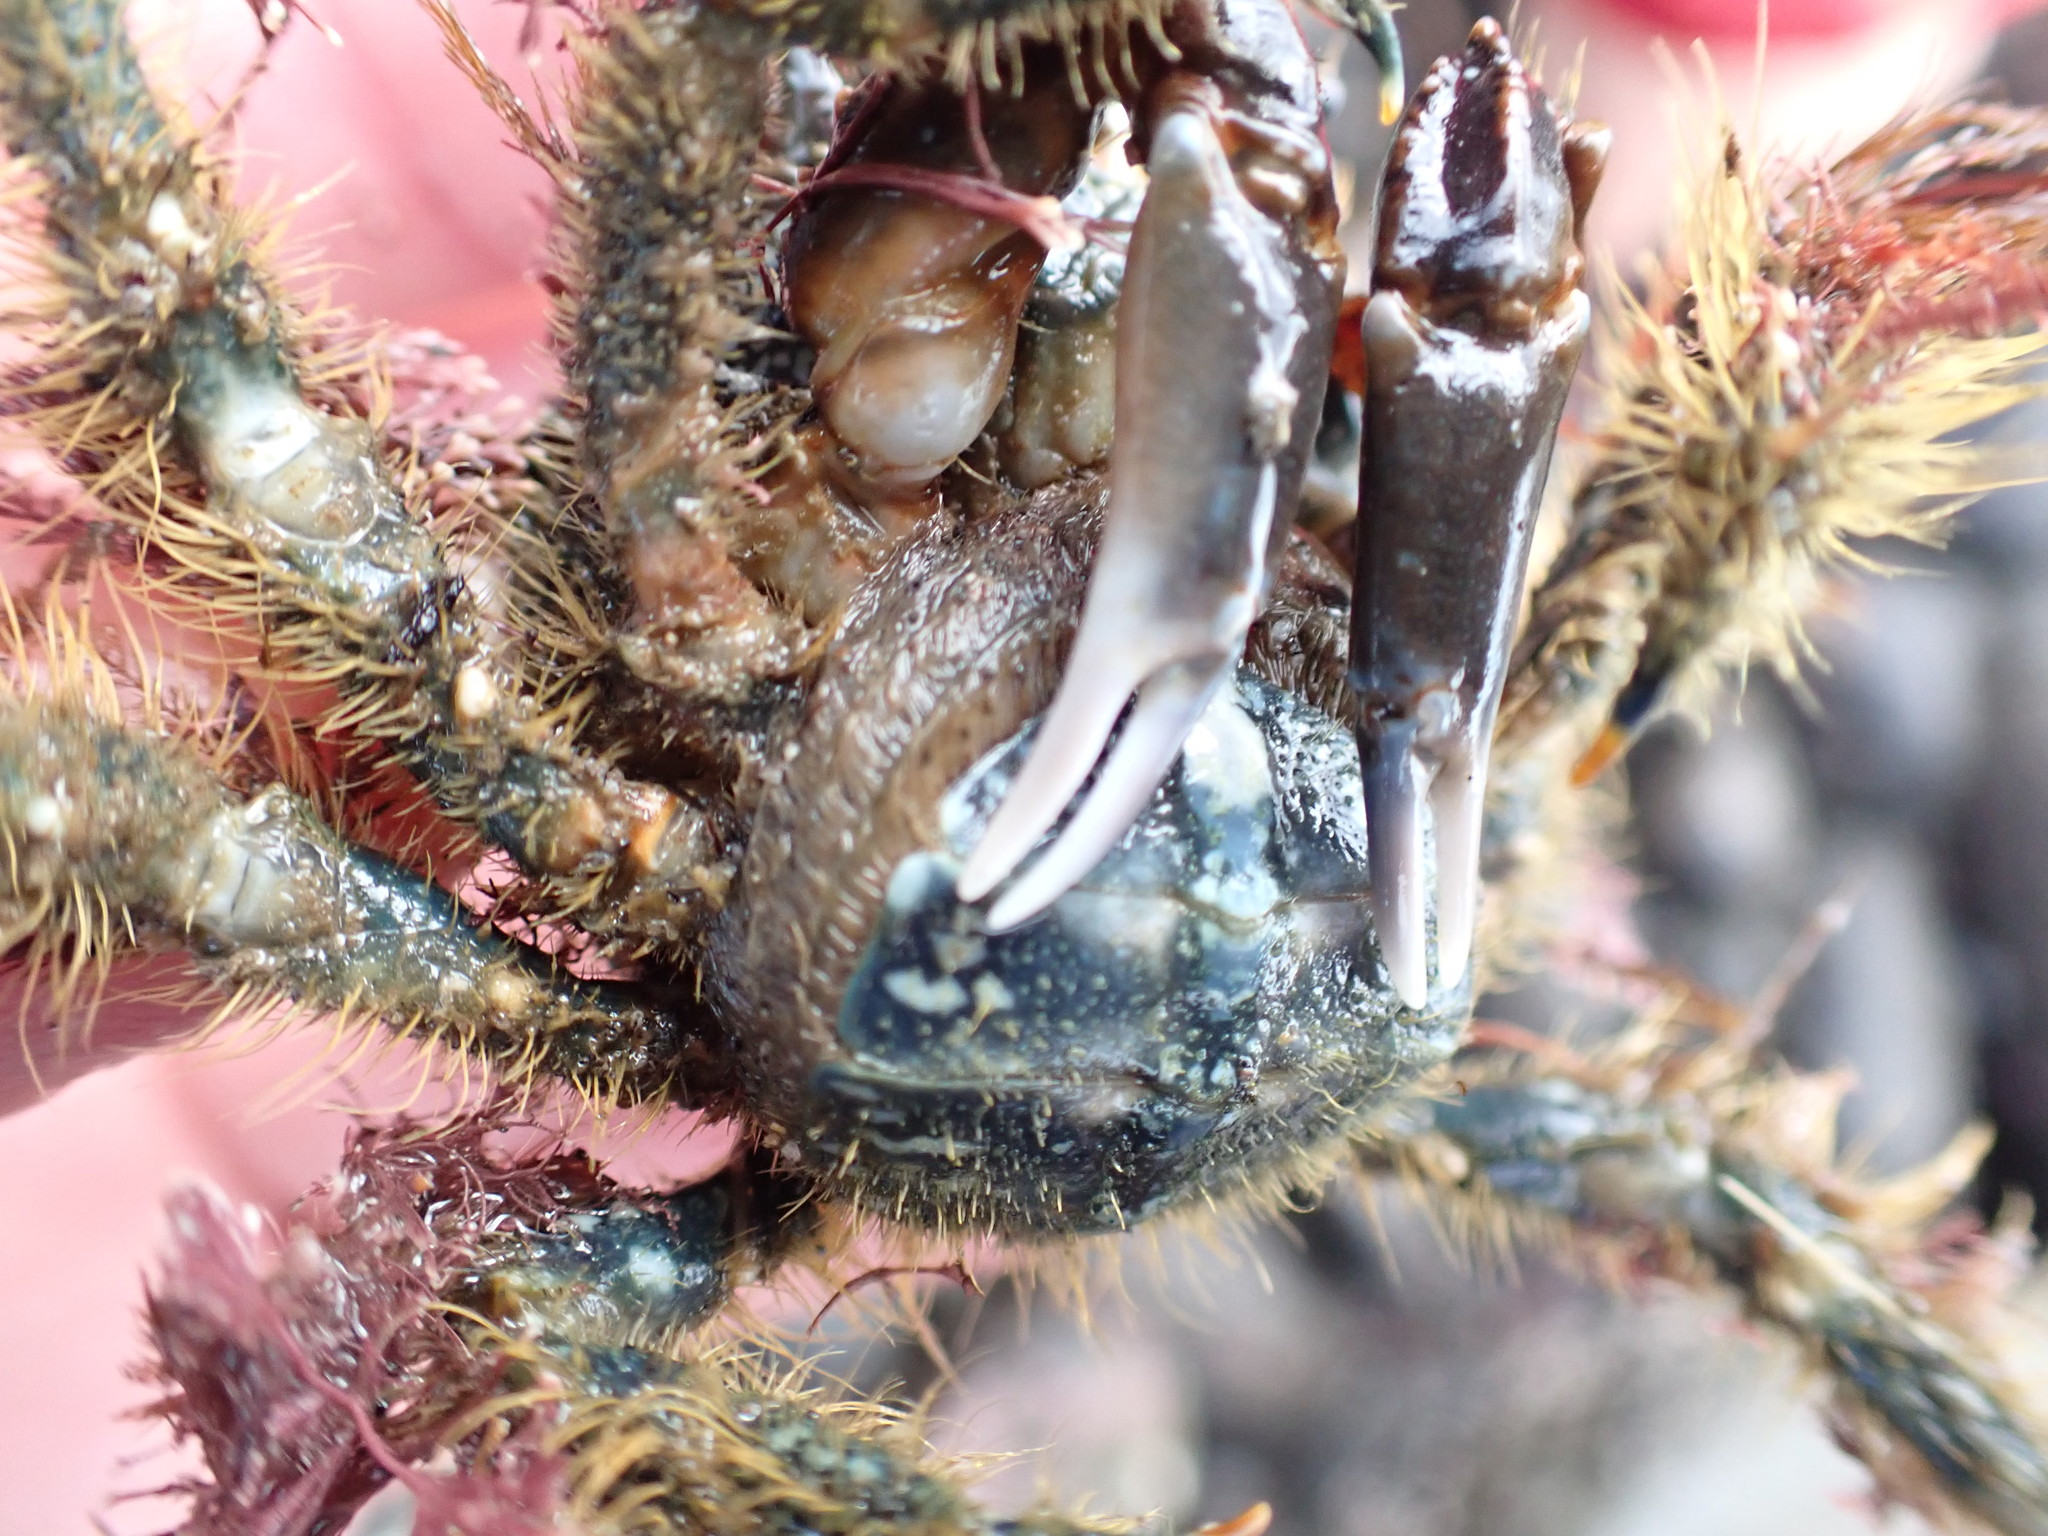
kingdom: Animalia
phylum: Arthropoda
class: Malacostraca
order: Decapoda
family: Majidae
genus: Notomithrax
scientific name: Notomithrax ursus
